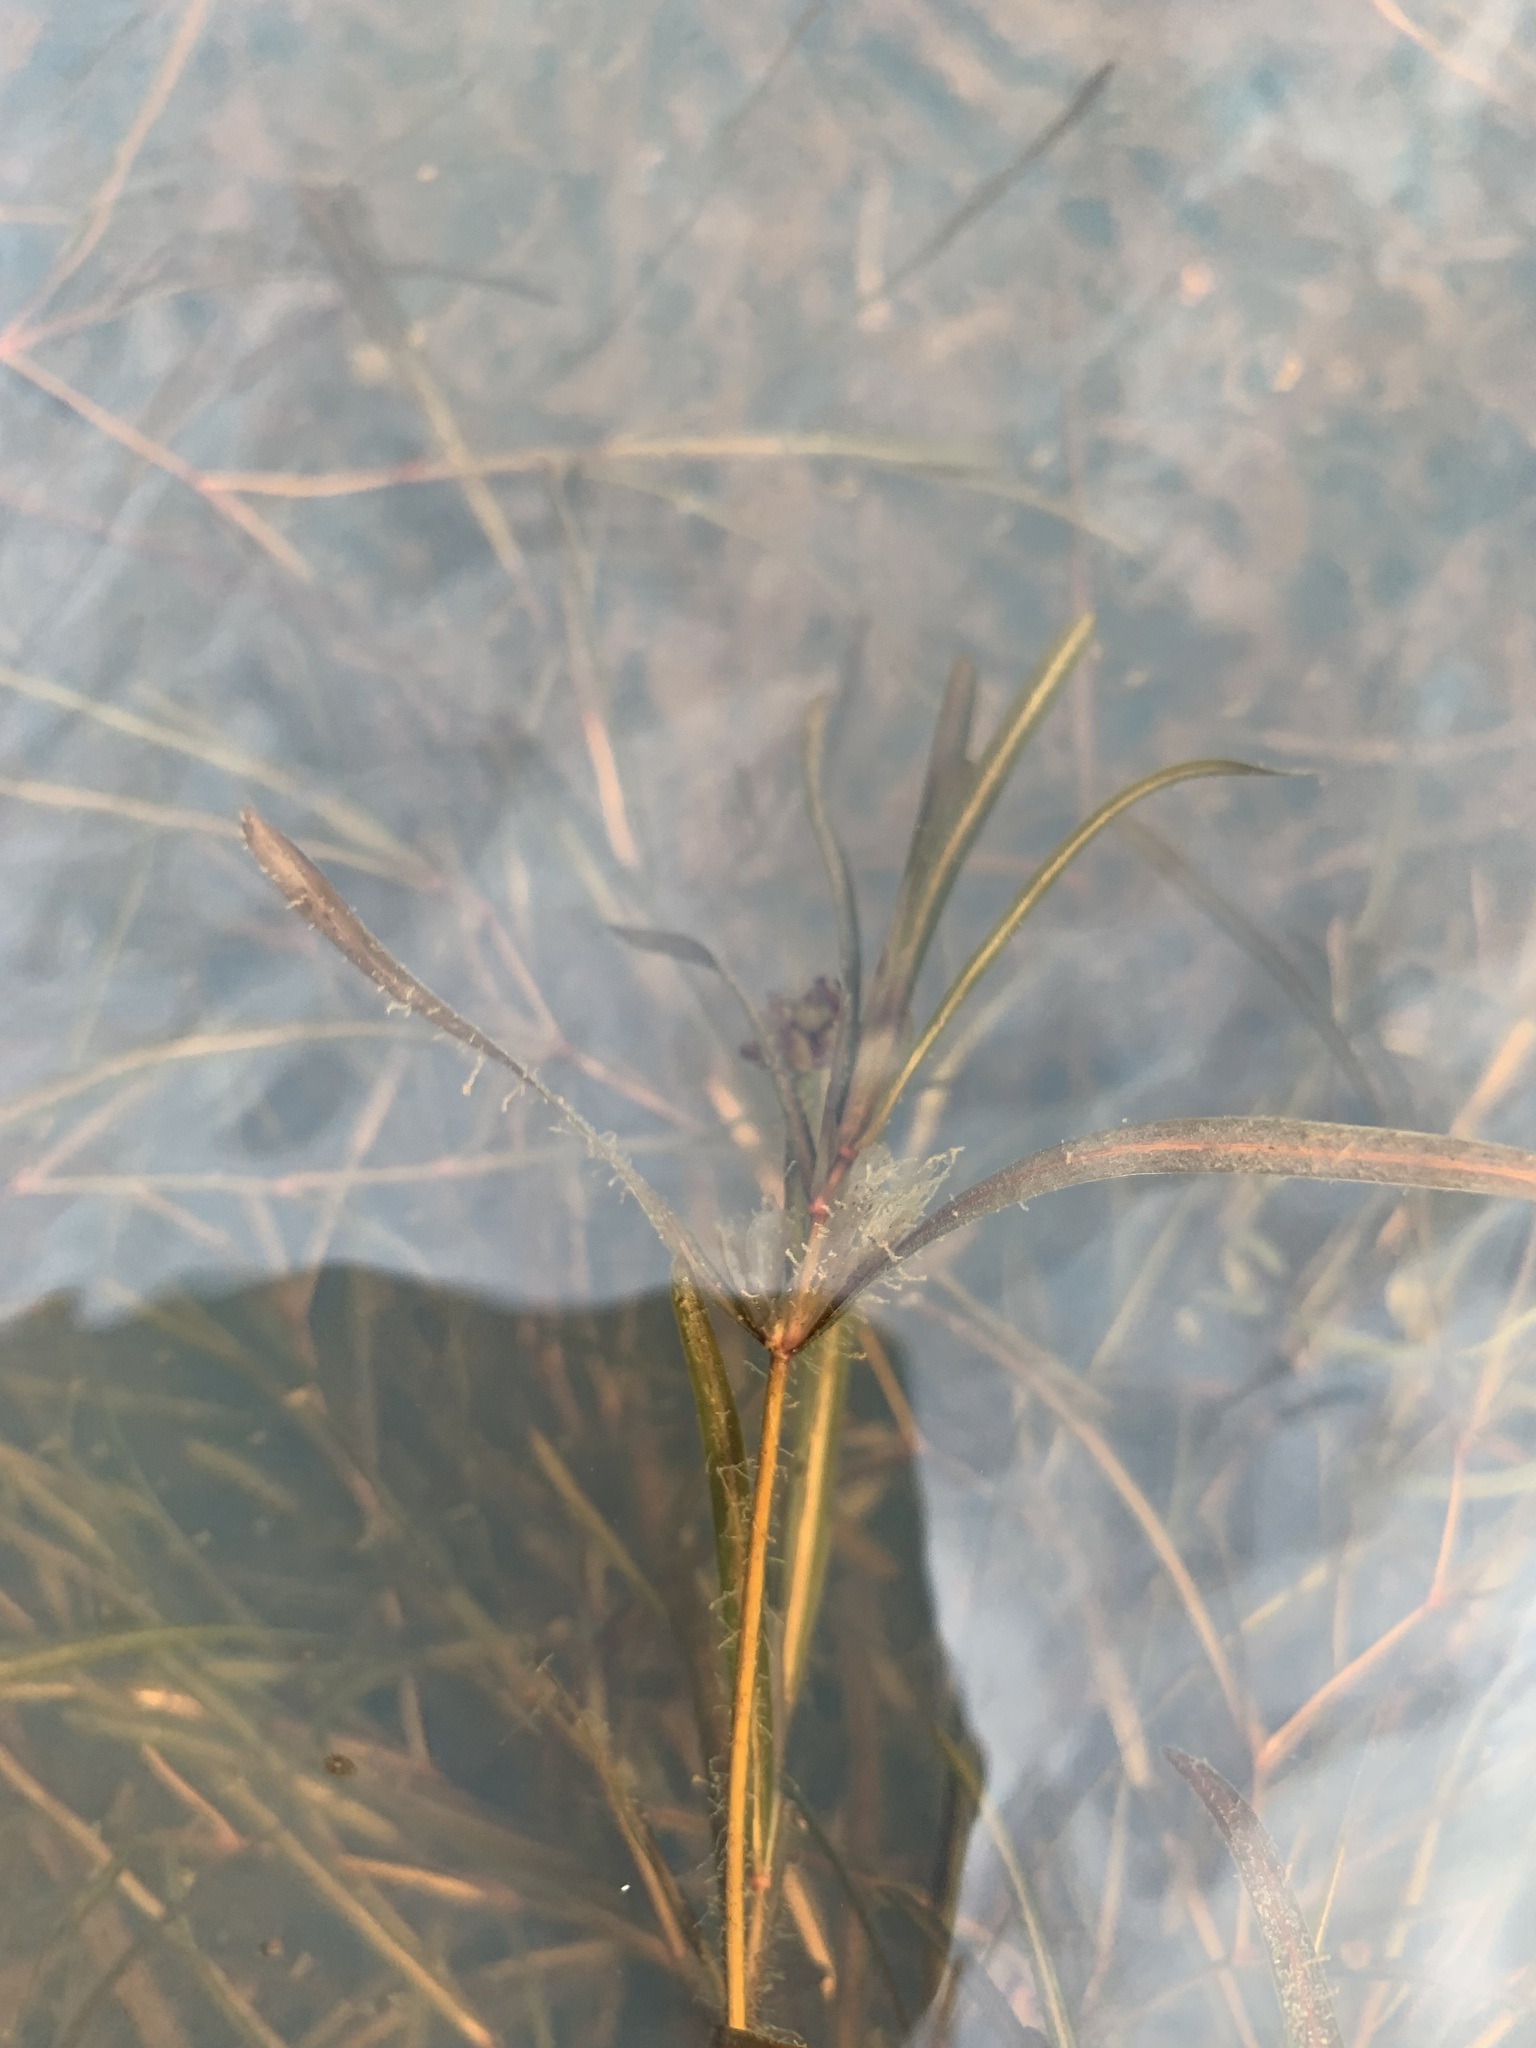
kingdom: Plantae
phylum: Tracheophyta
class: Liliopsida
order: Alismatales
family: Potamogetonaceae
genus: Potamogeton
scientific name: Potamogeton sibiricus
